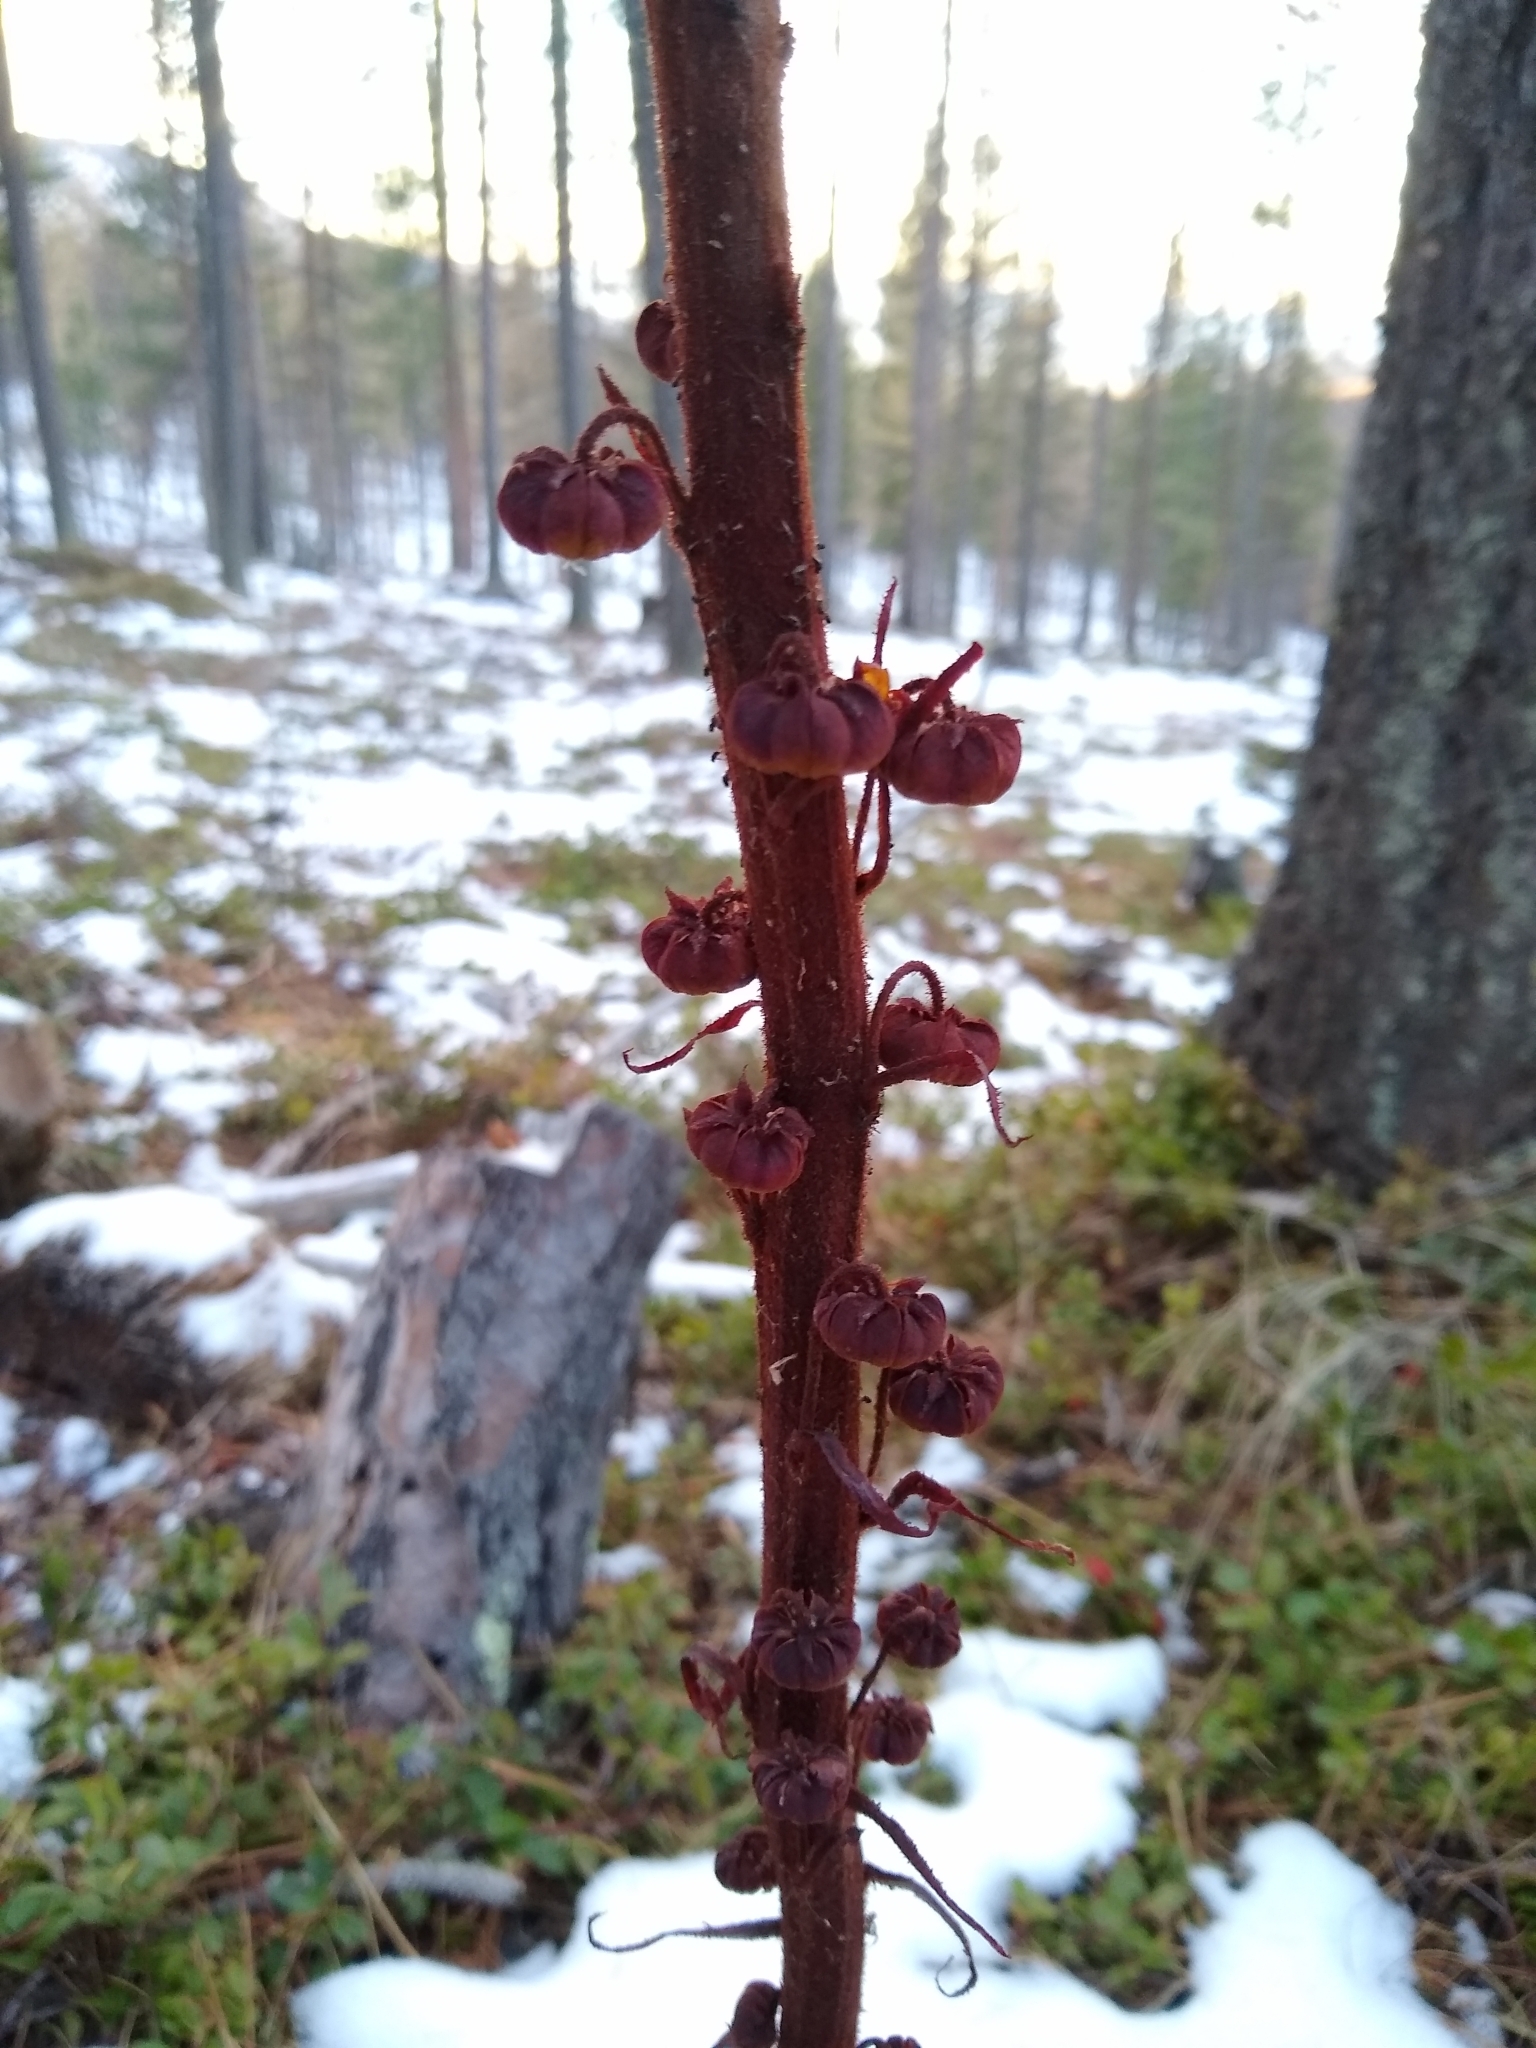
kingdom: Plantae
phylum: Tracheophyta
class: Magnoliopsida
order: Ericales
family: Ericaceae
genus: Pterospora
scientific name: Pterospora andromedea
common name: Giant bird's-nest
